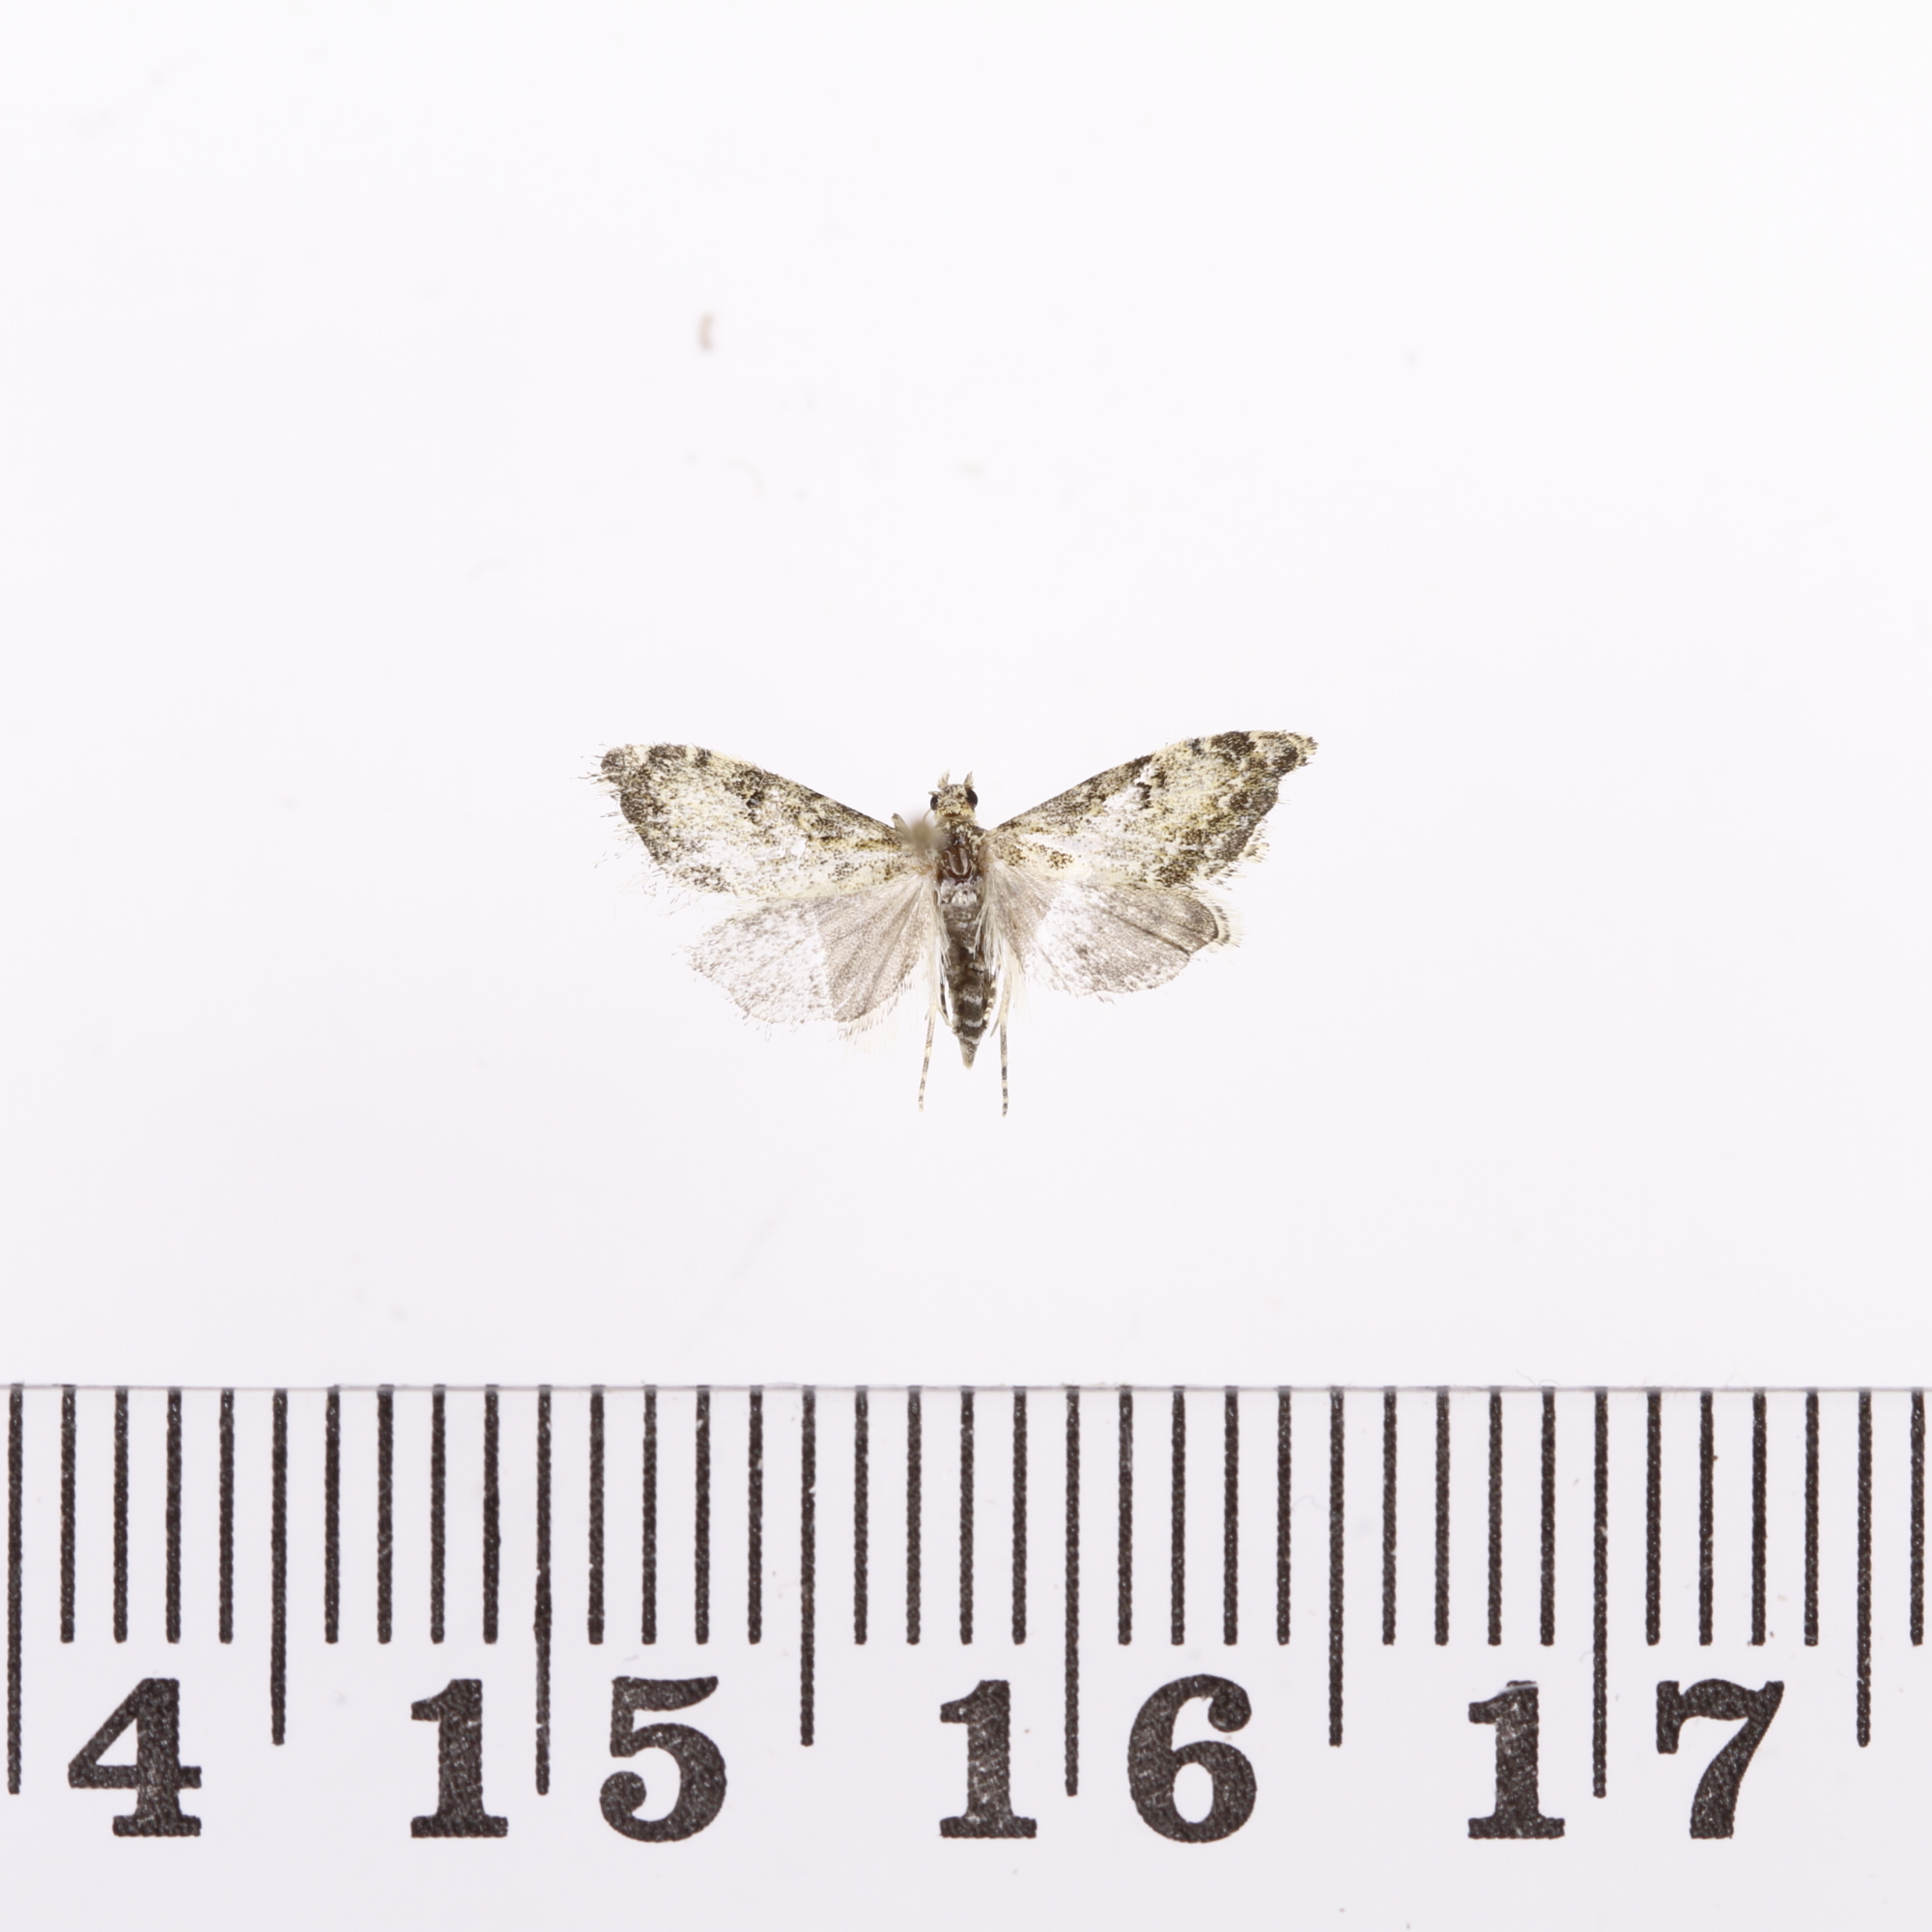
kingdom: Animalia
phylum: Arthropoda
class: Insecta
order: Lepidoptera
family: Crambidae
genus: Glaucocharis
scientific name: Glaucocharis elaina
